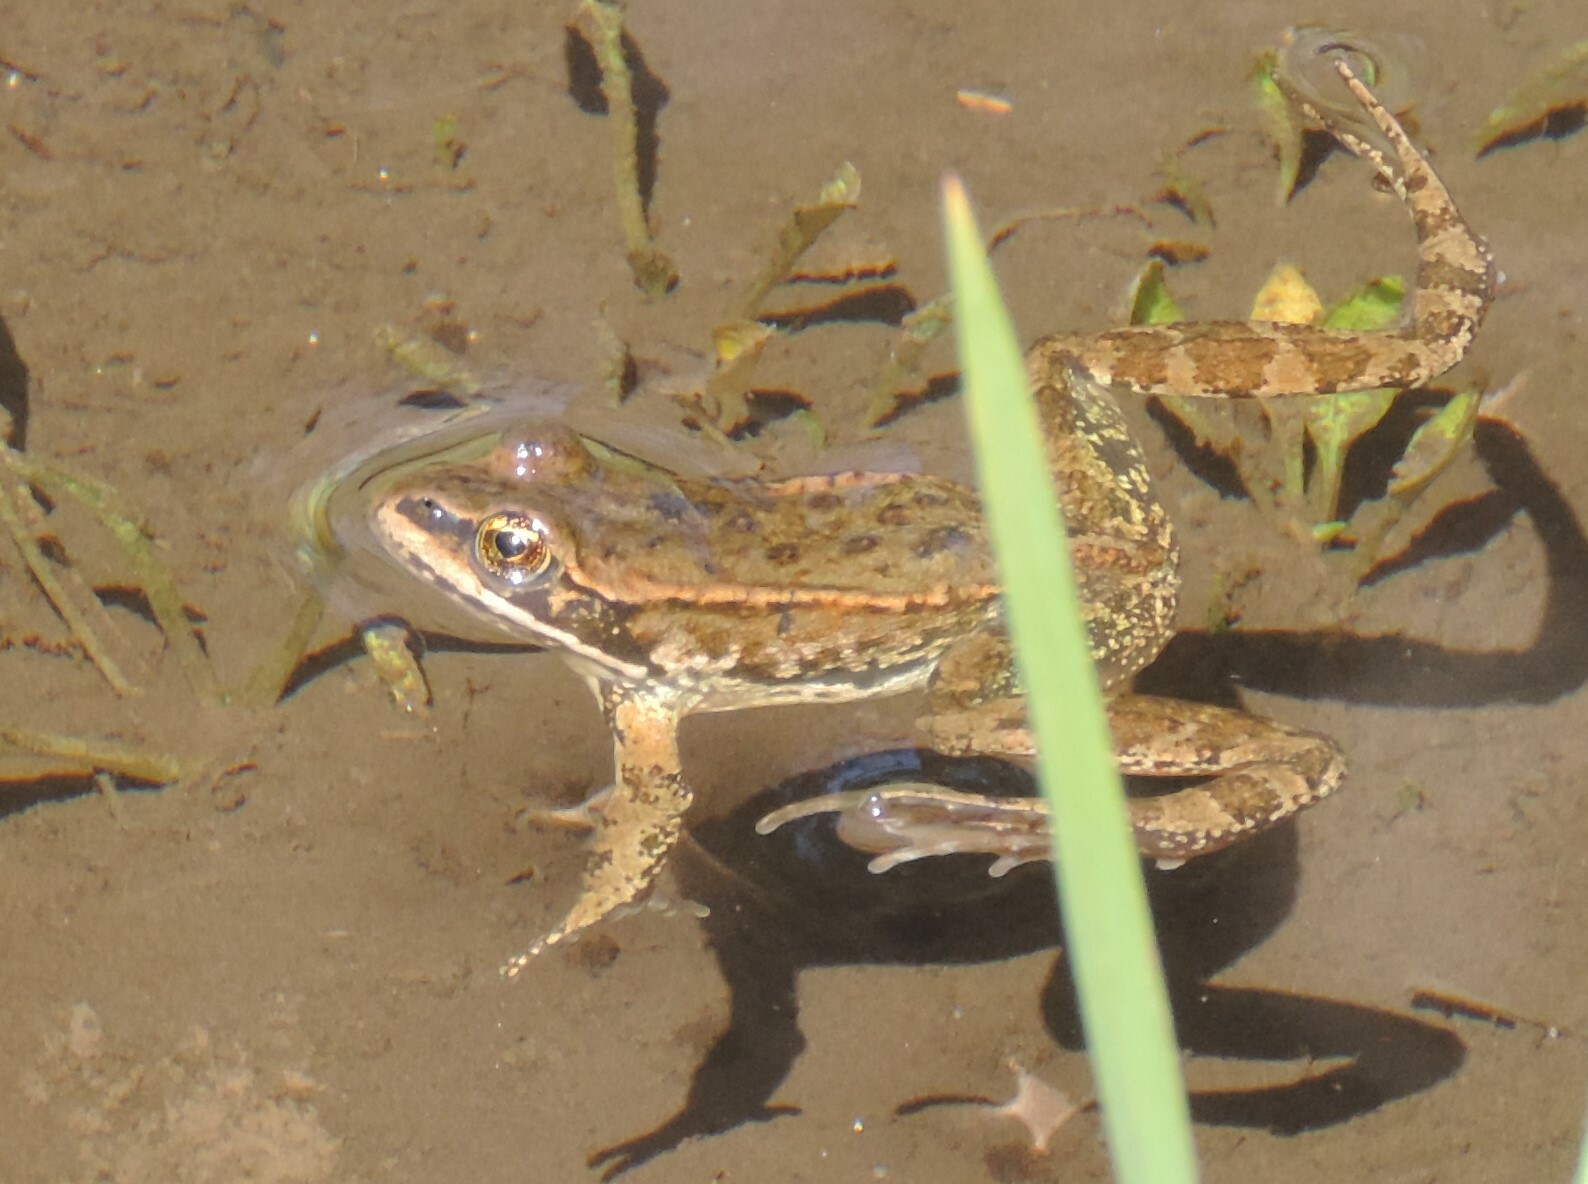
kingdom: Animalia
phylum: Chordata
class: Amphibia
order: Anura
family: Ranidae
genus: Rana
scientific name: Rana luteiventris
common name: Columbia spotted frog
